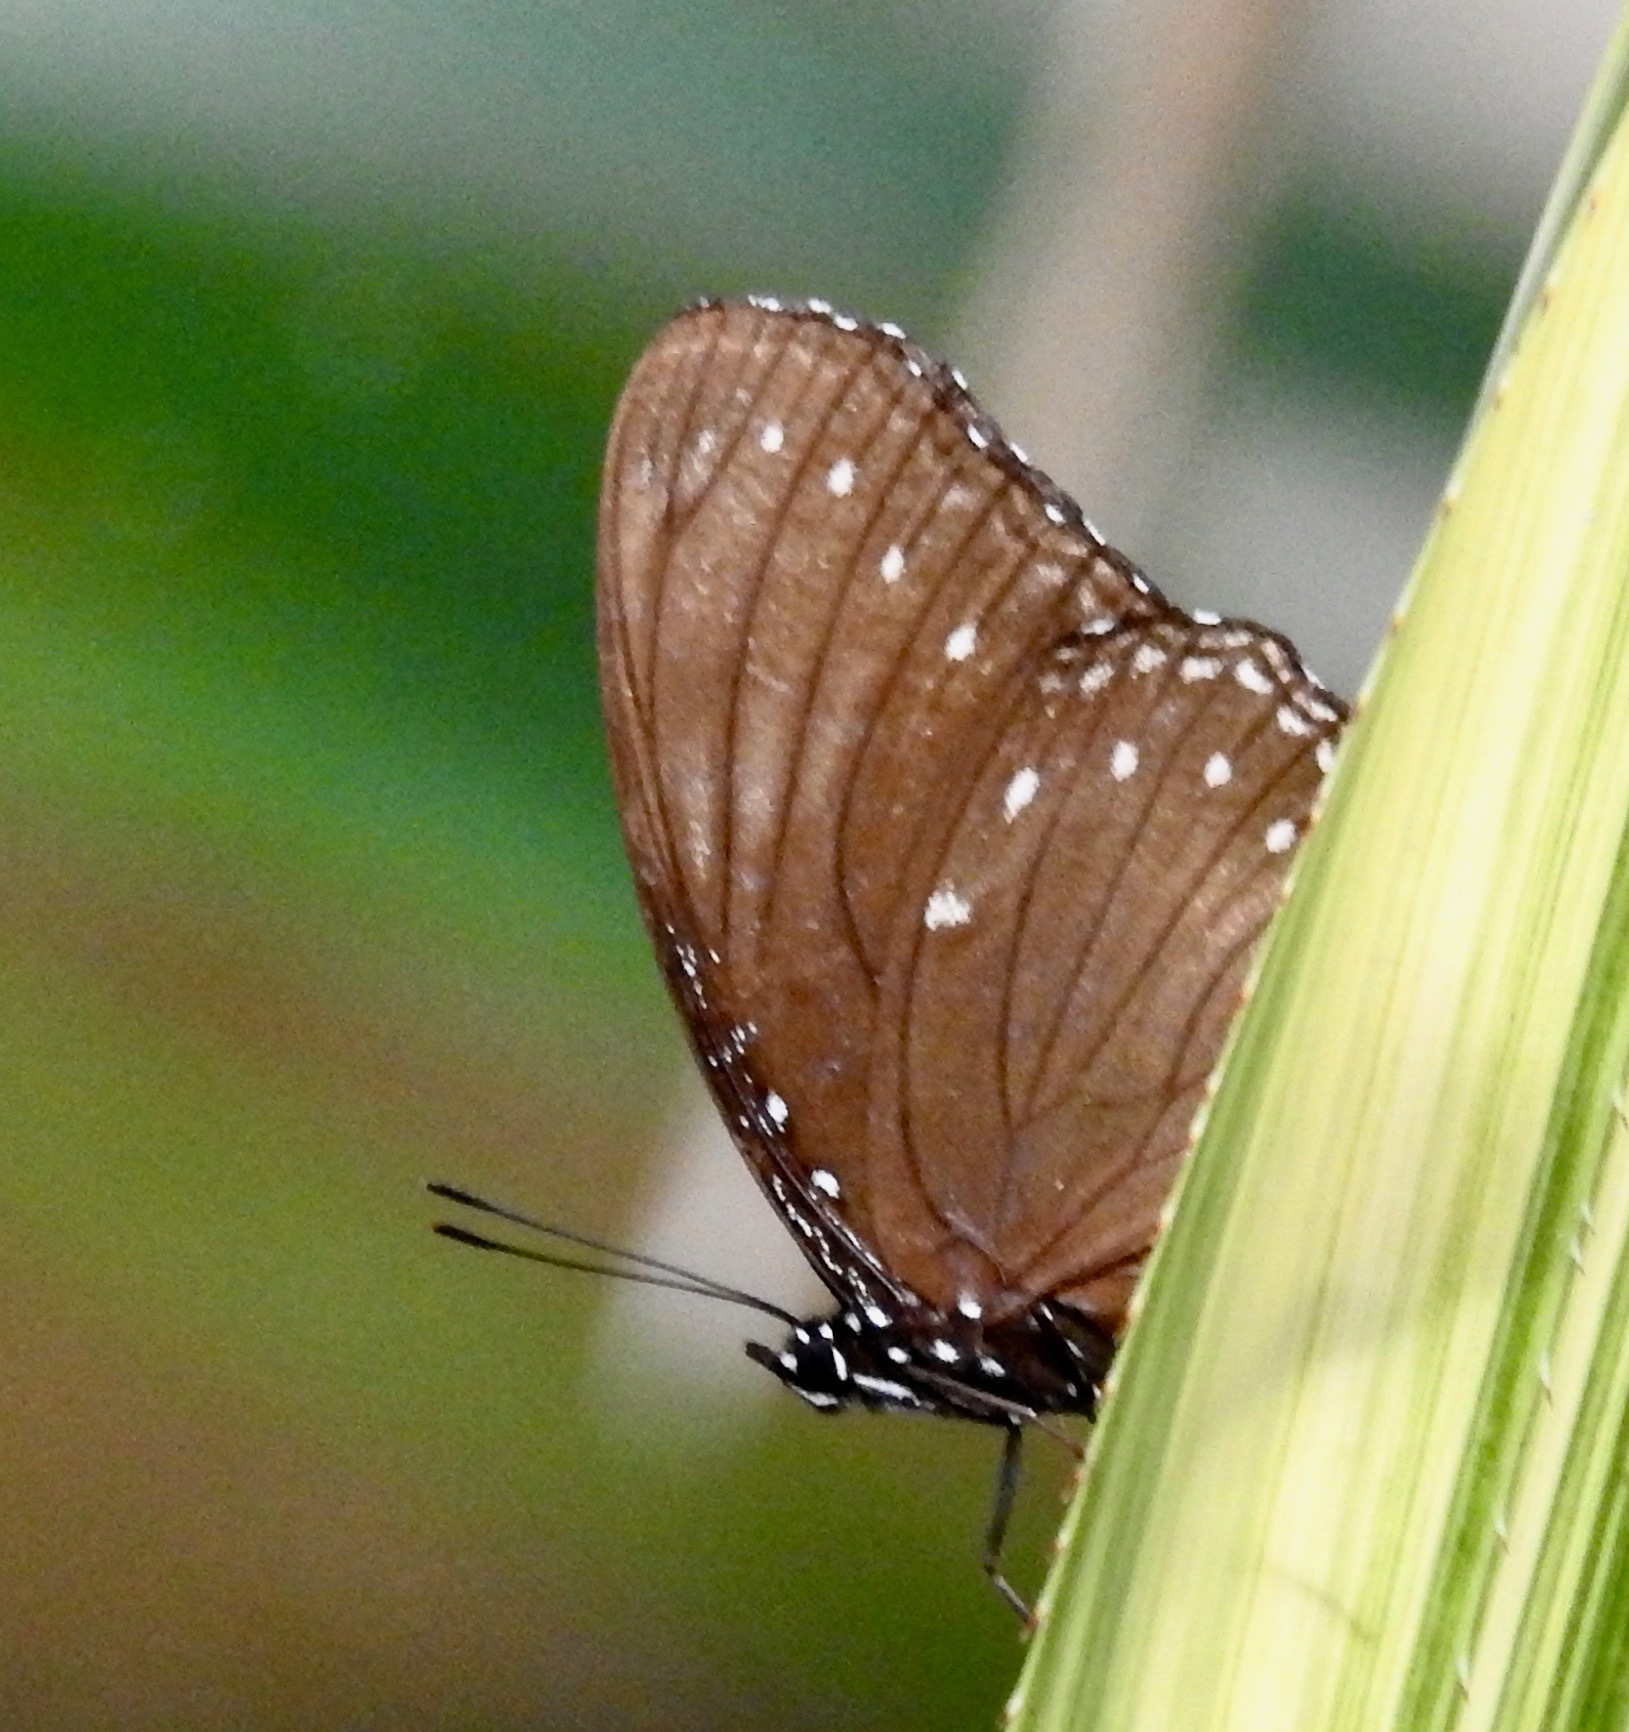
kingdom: Animalia
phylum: Arthropoda
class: Insecta
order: Lepidoptera
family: Nymphalidae
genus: Hypolimnas
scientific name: Hypolimnas anomala
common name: Malayan eggfly
